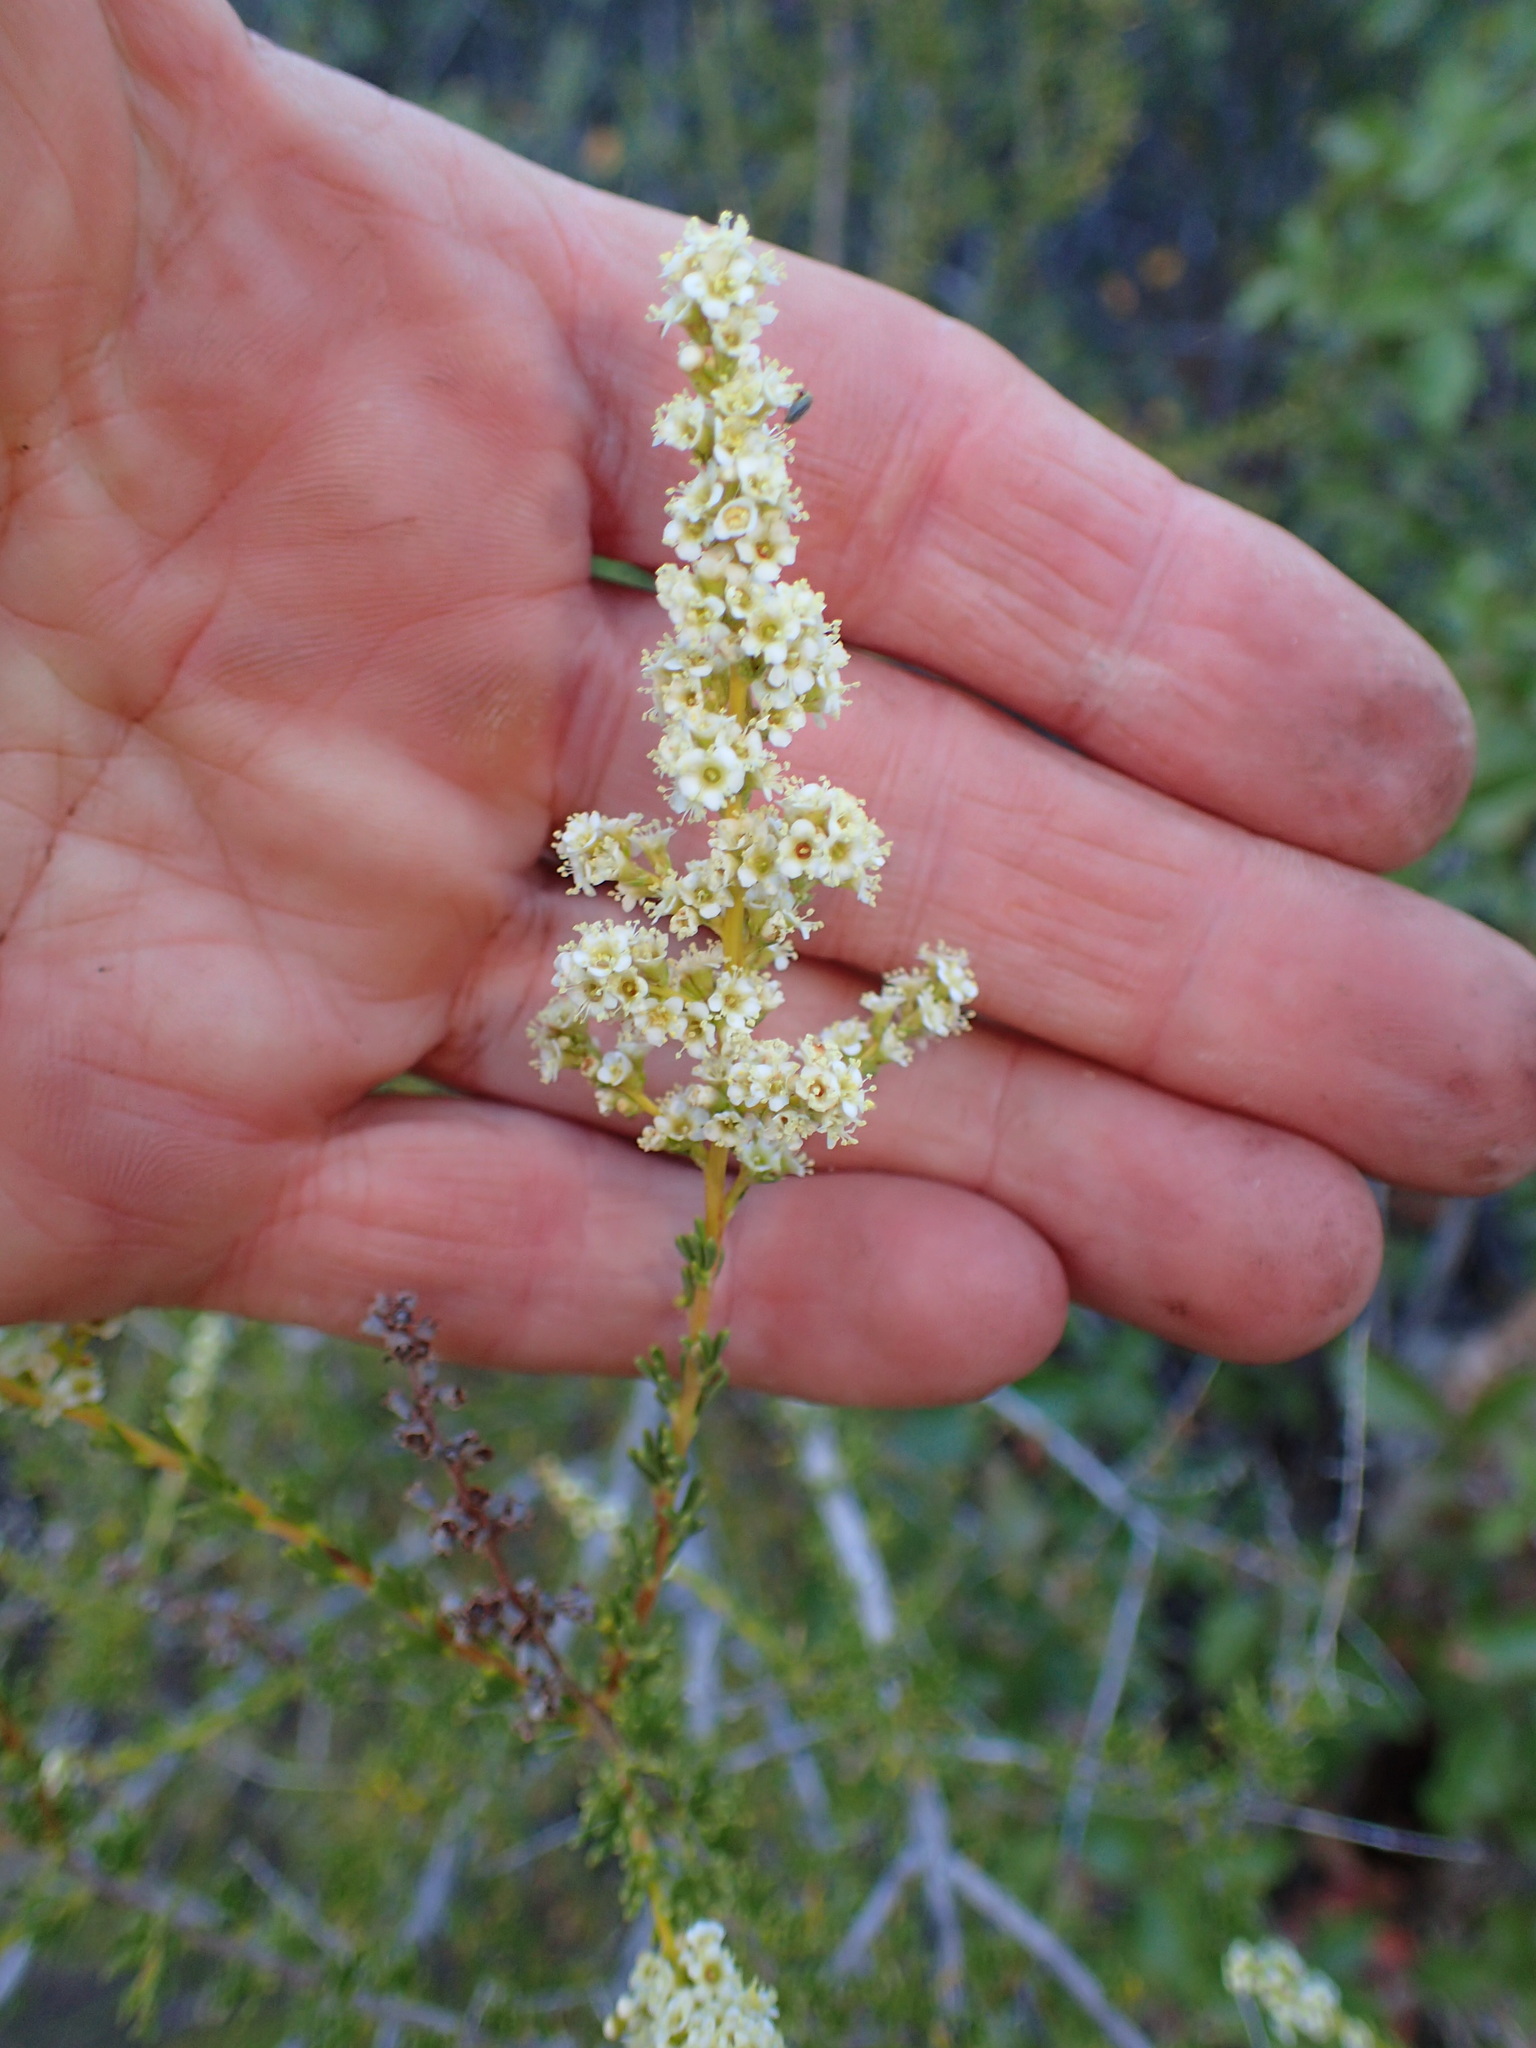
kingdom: Plantae
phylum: Tracheophyta
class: Magnoliopsida
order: Rosales
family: Rosaceae
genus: Adenostoma
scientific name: Adenostoma fasciculatum
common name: Chamise
